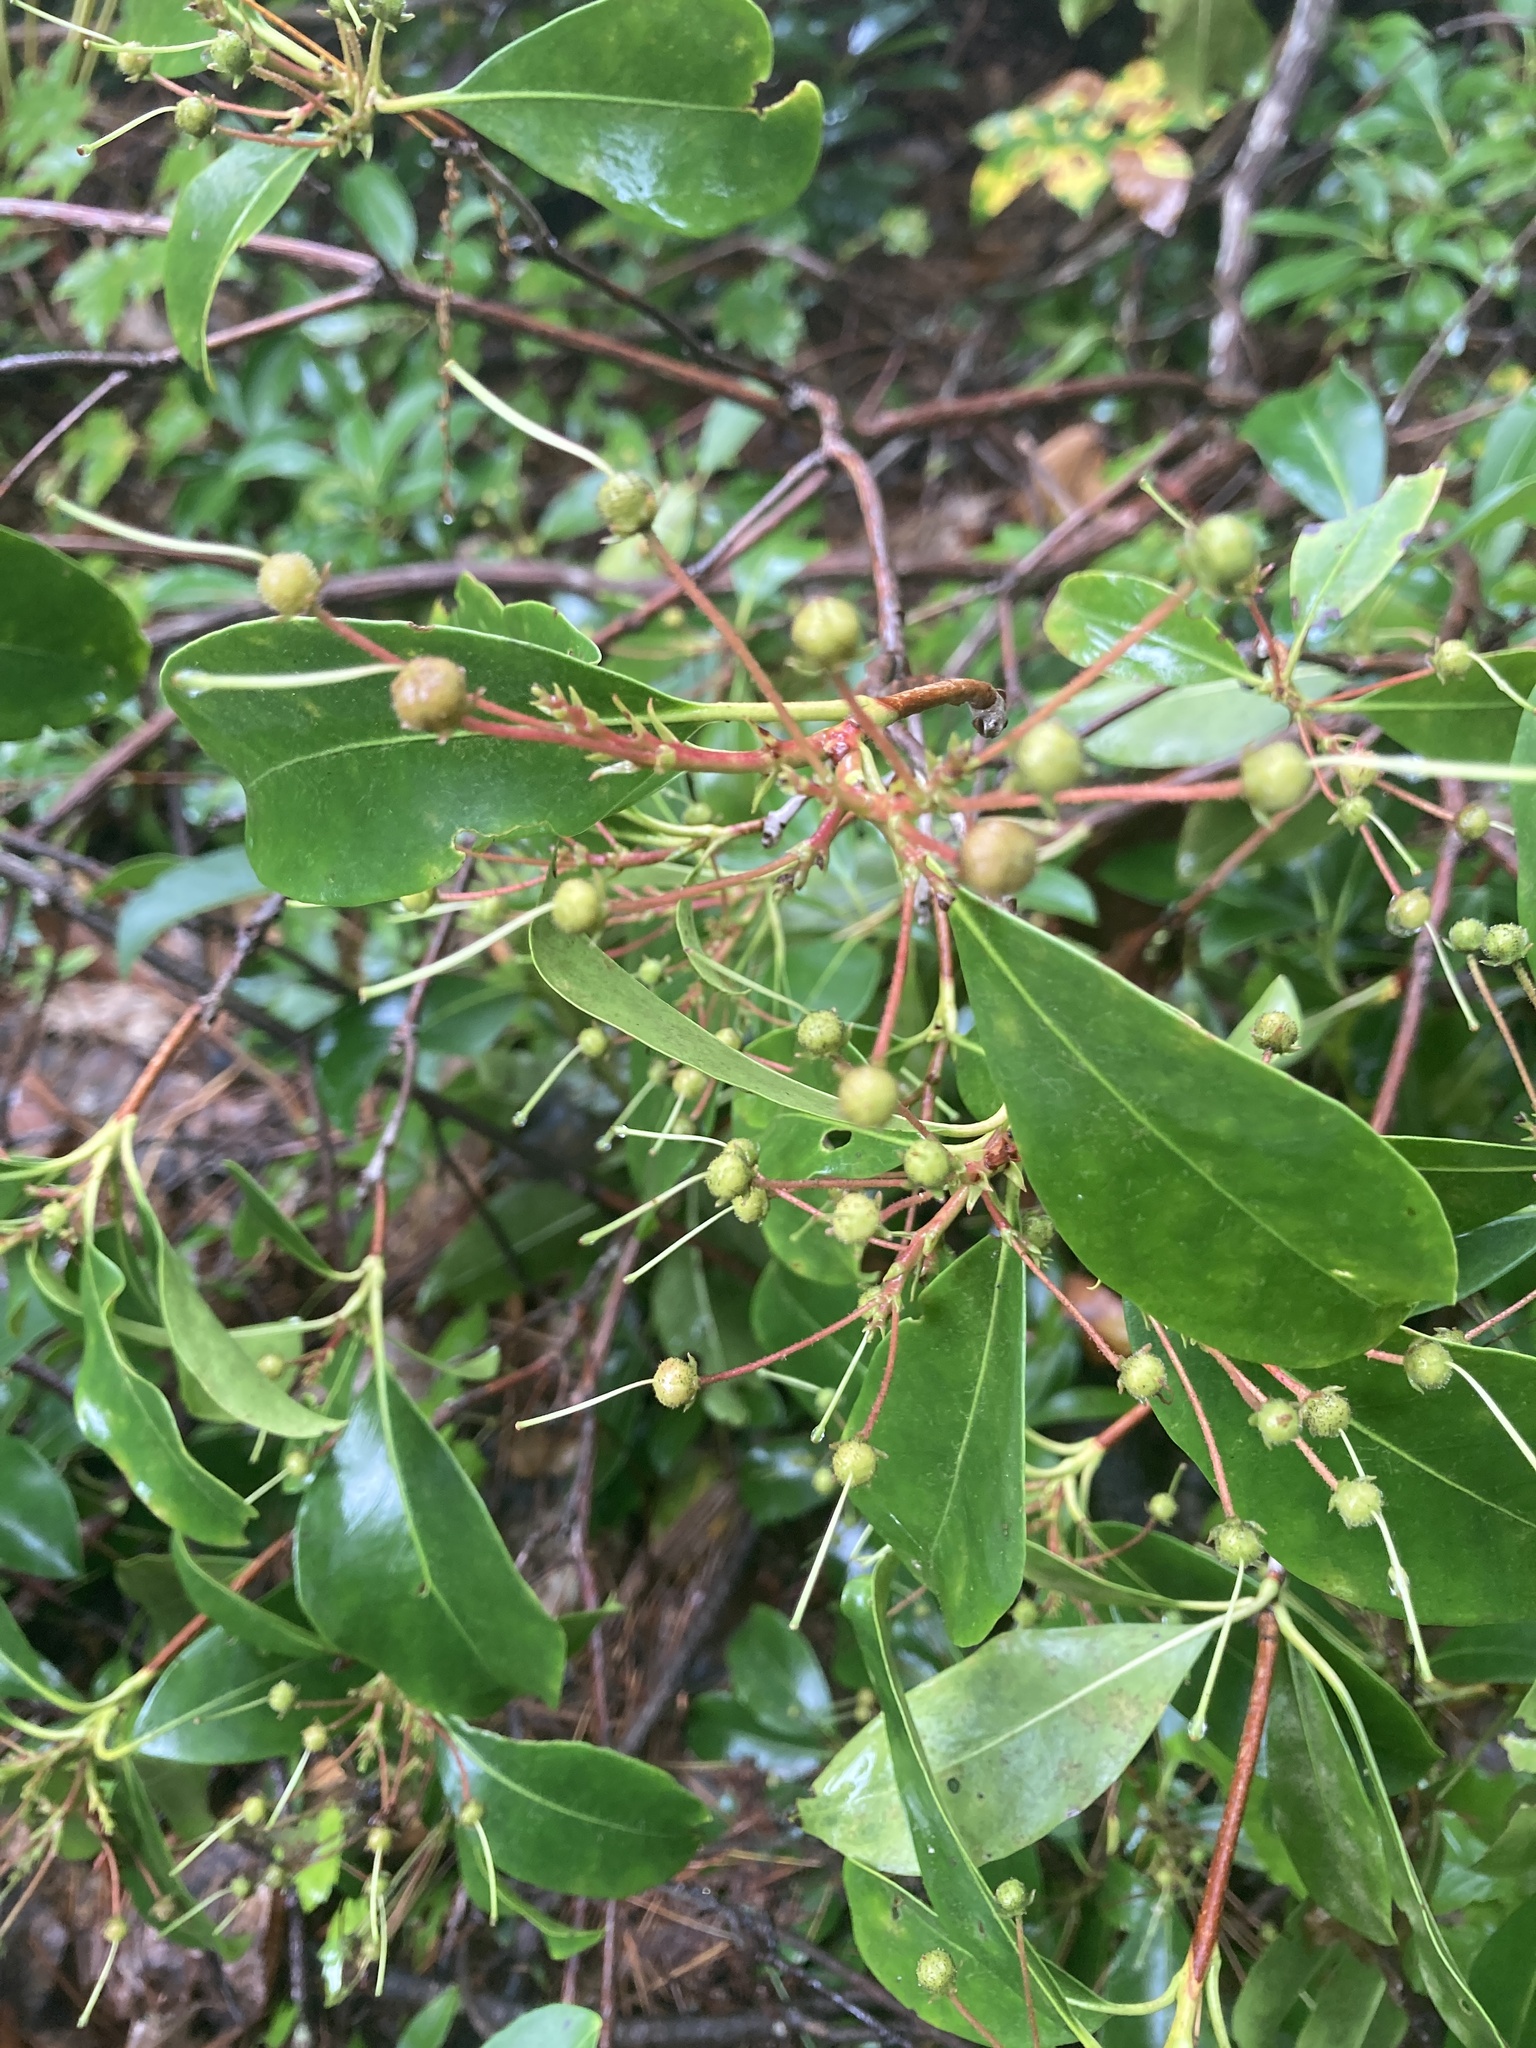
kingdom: Plantae
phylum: Tracheophyta
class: Magnoliopsida
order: Ericales
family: Ericaceae
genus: Kalmia
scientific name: Kalmia latifolia
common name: Mountain-laurel
